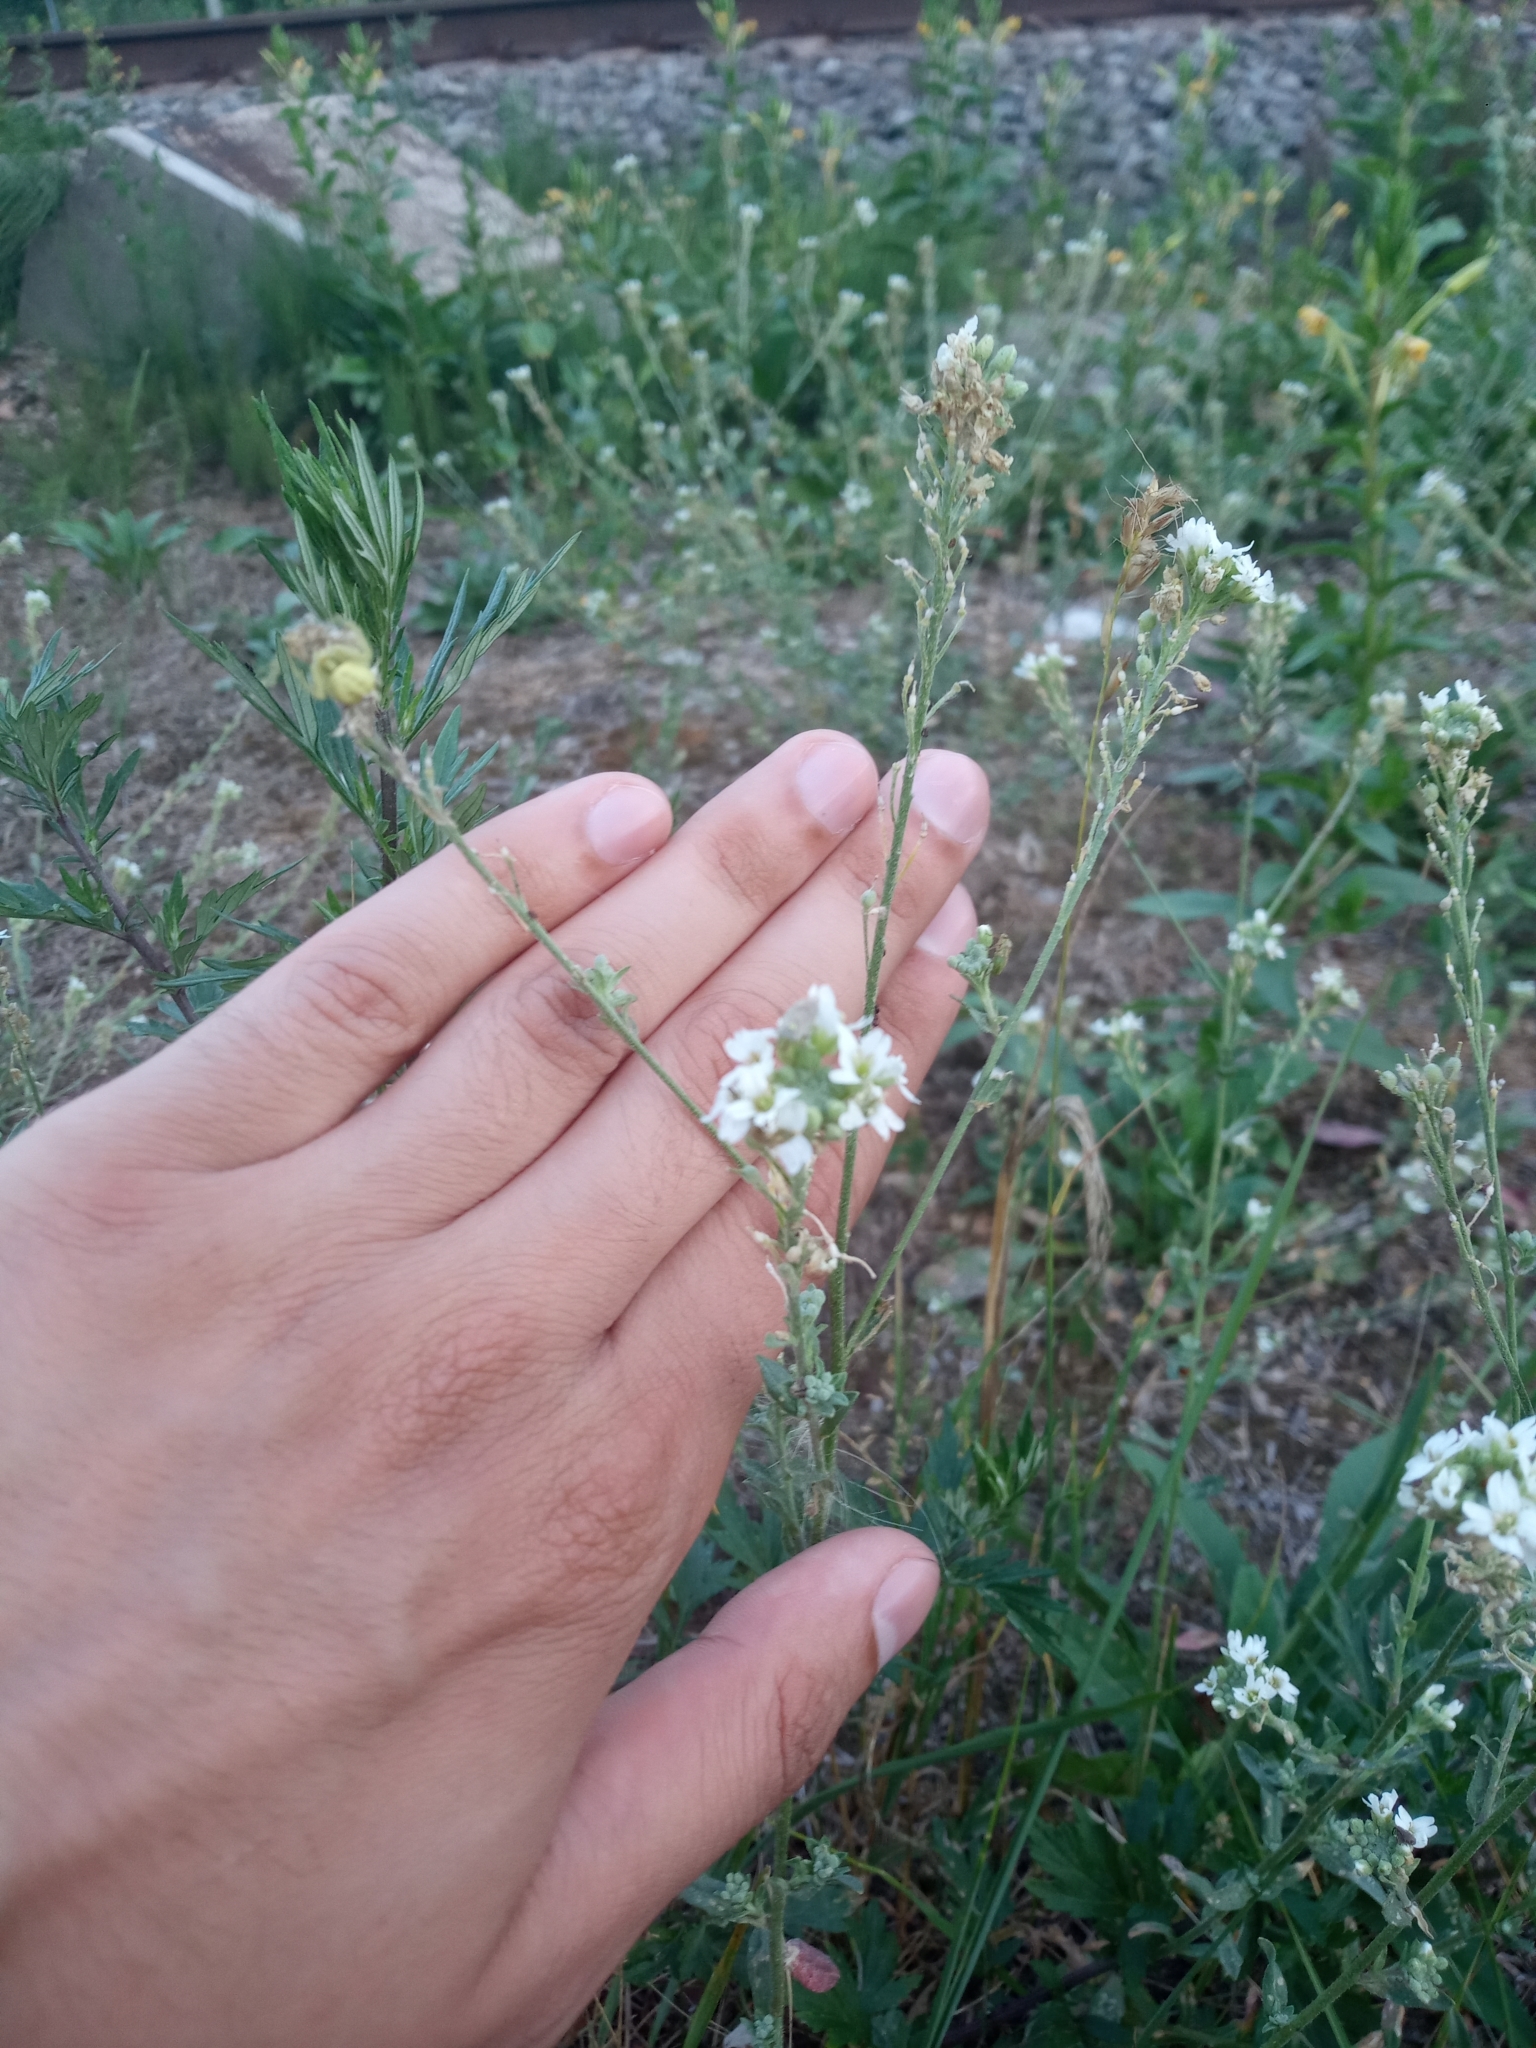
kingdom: Plantae
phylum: Tracheophyta
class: Magnoliopsida
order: Brassicales
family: Brassicaceae
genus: Berteroa
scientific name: Berteroa incana
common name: Hoary alison
